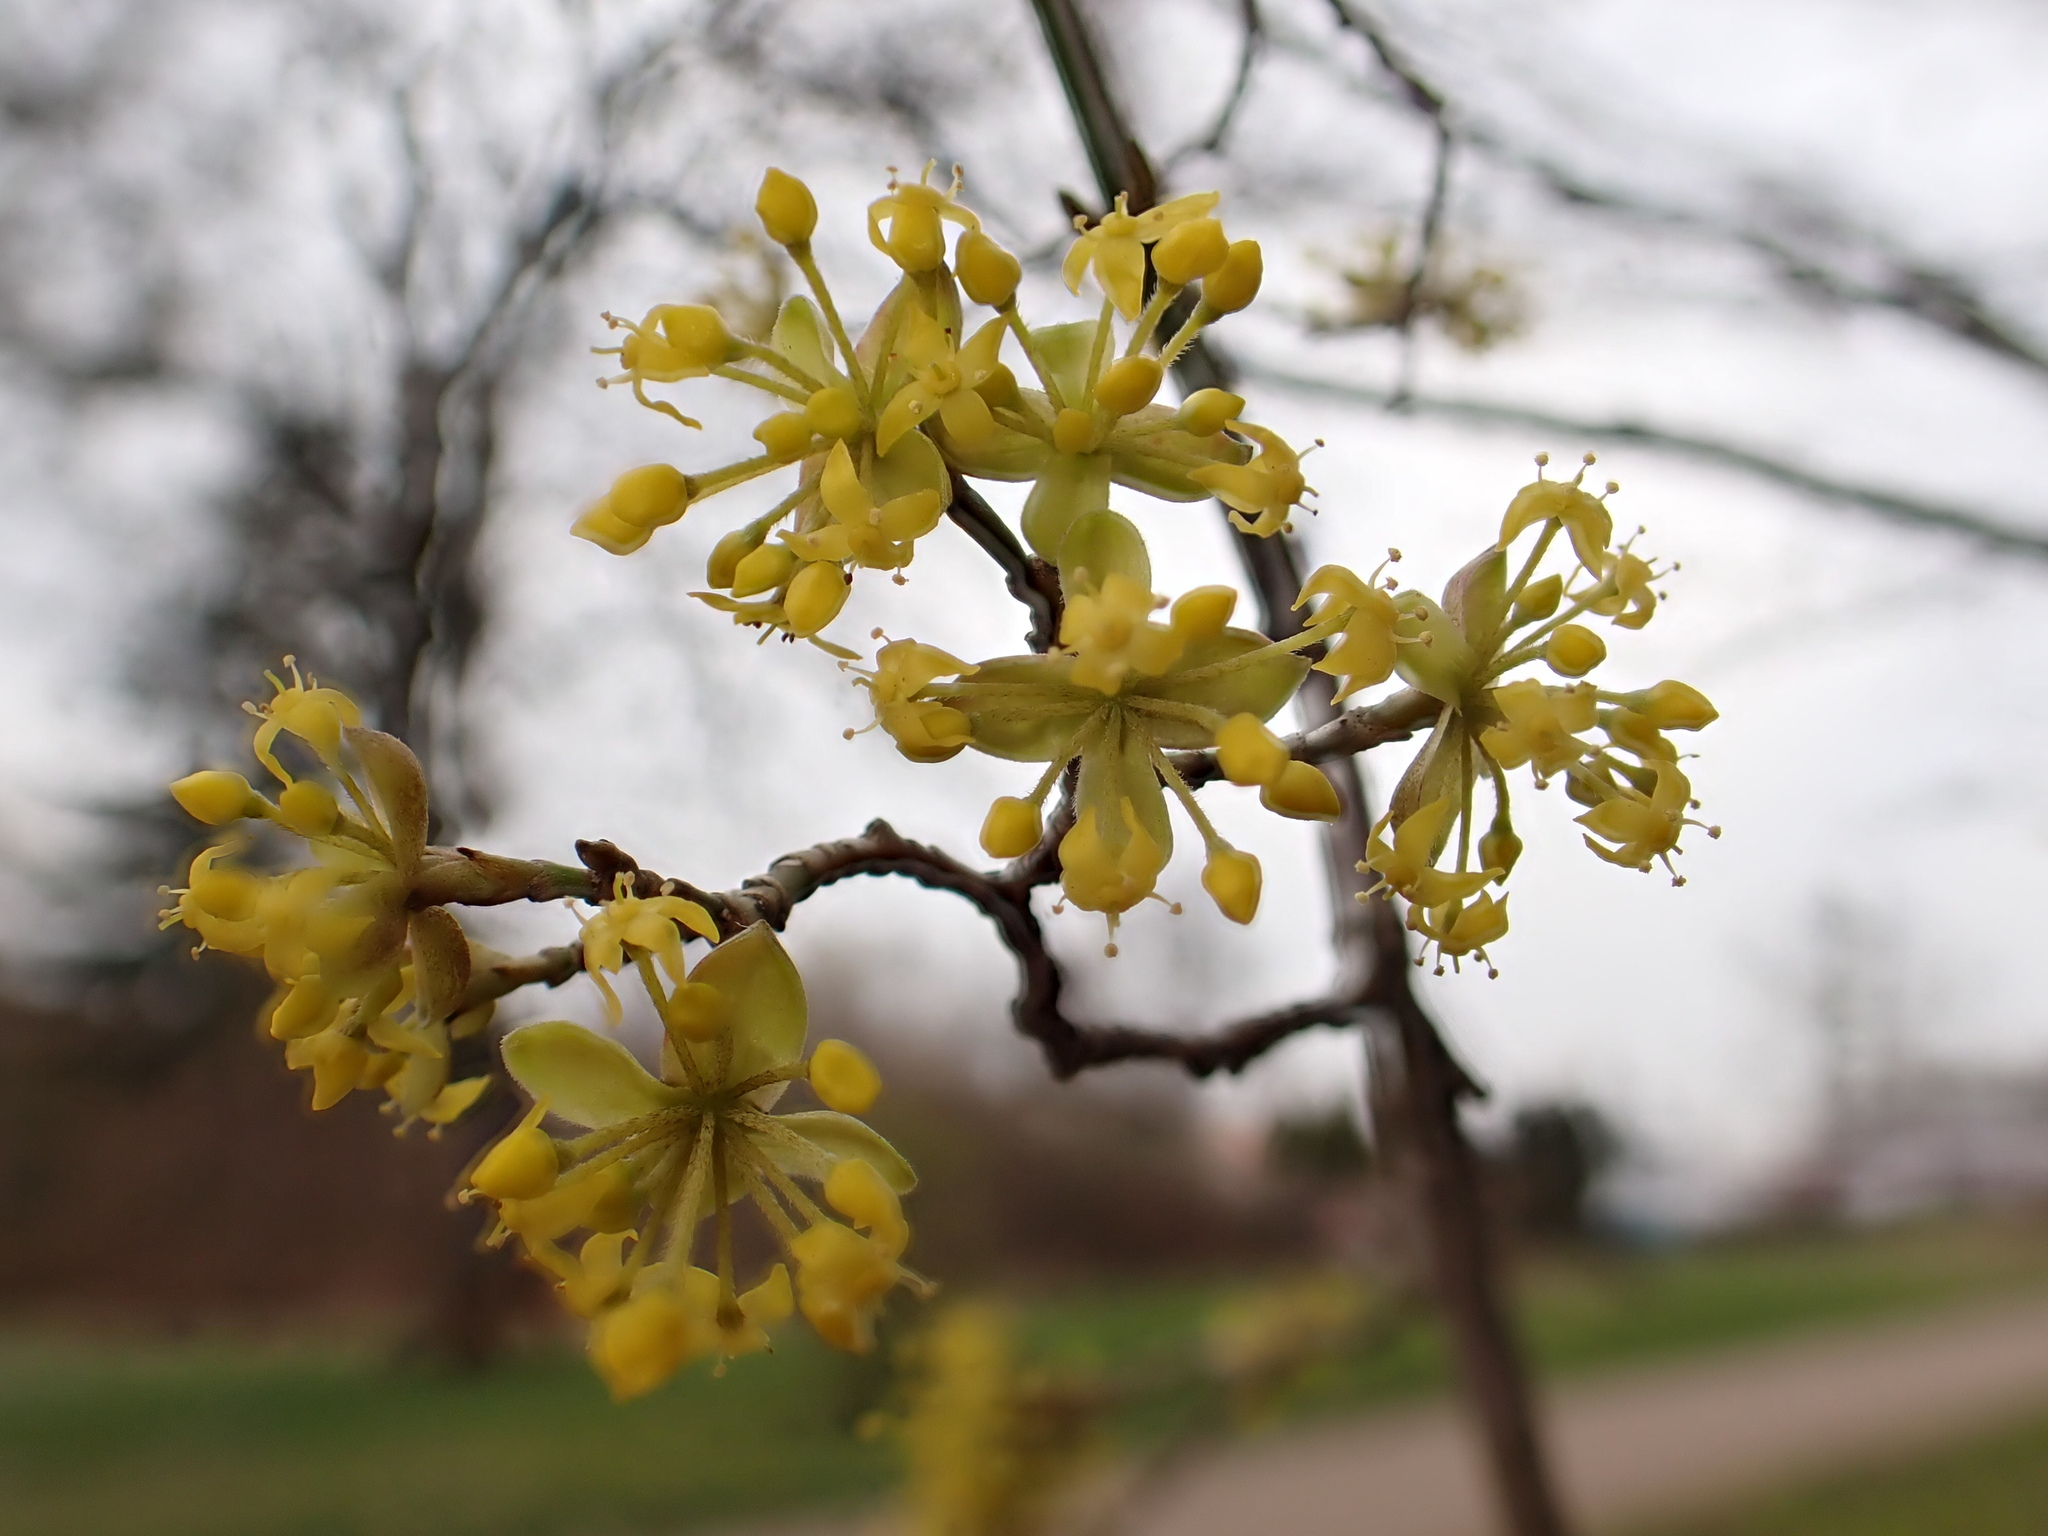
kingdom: Plantae
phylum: Tracheophyta
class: Magnoliopsida
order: Cornales
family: Cornaceae
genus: Cornus
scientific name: Cornus mas
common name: Cornelian-cherry
